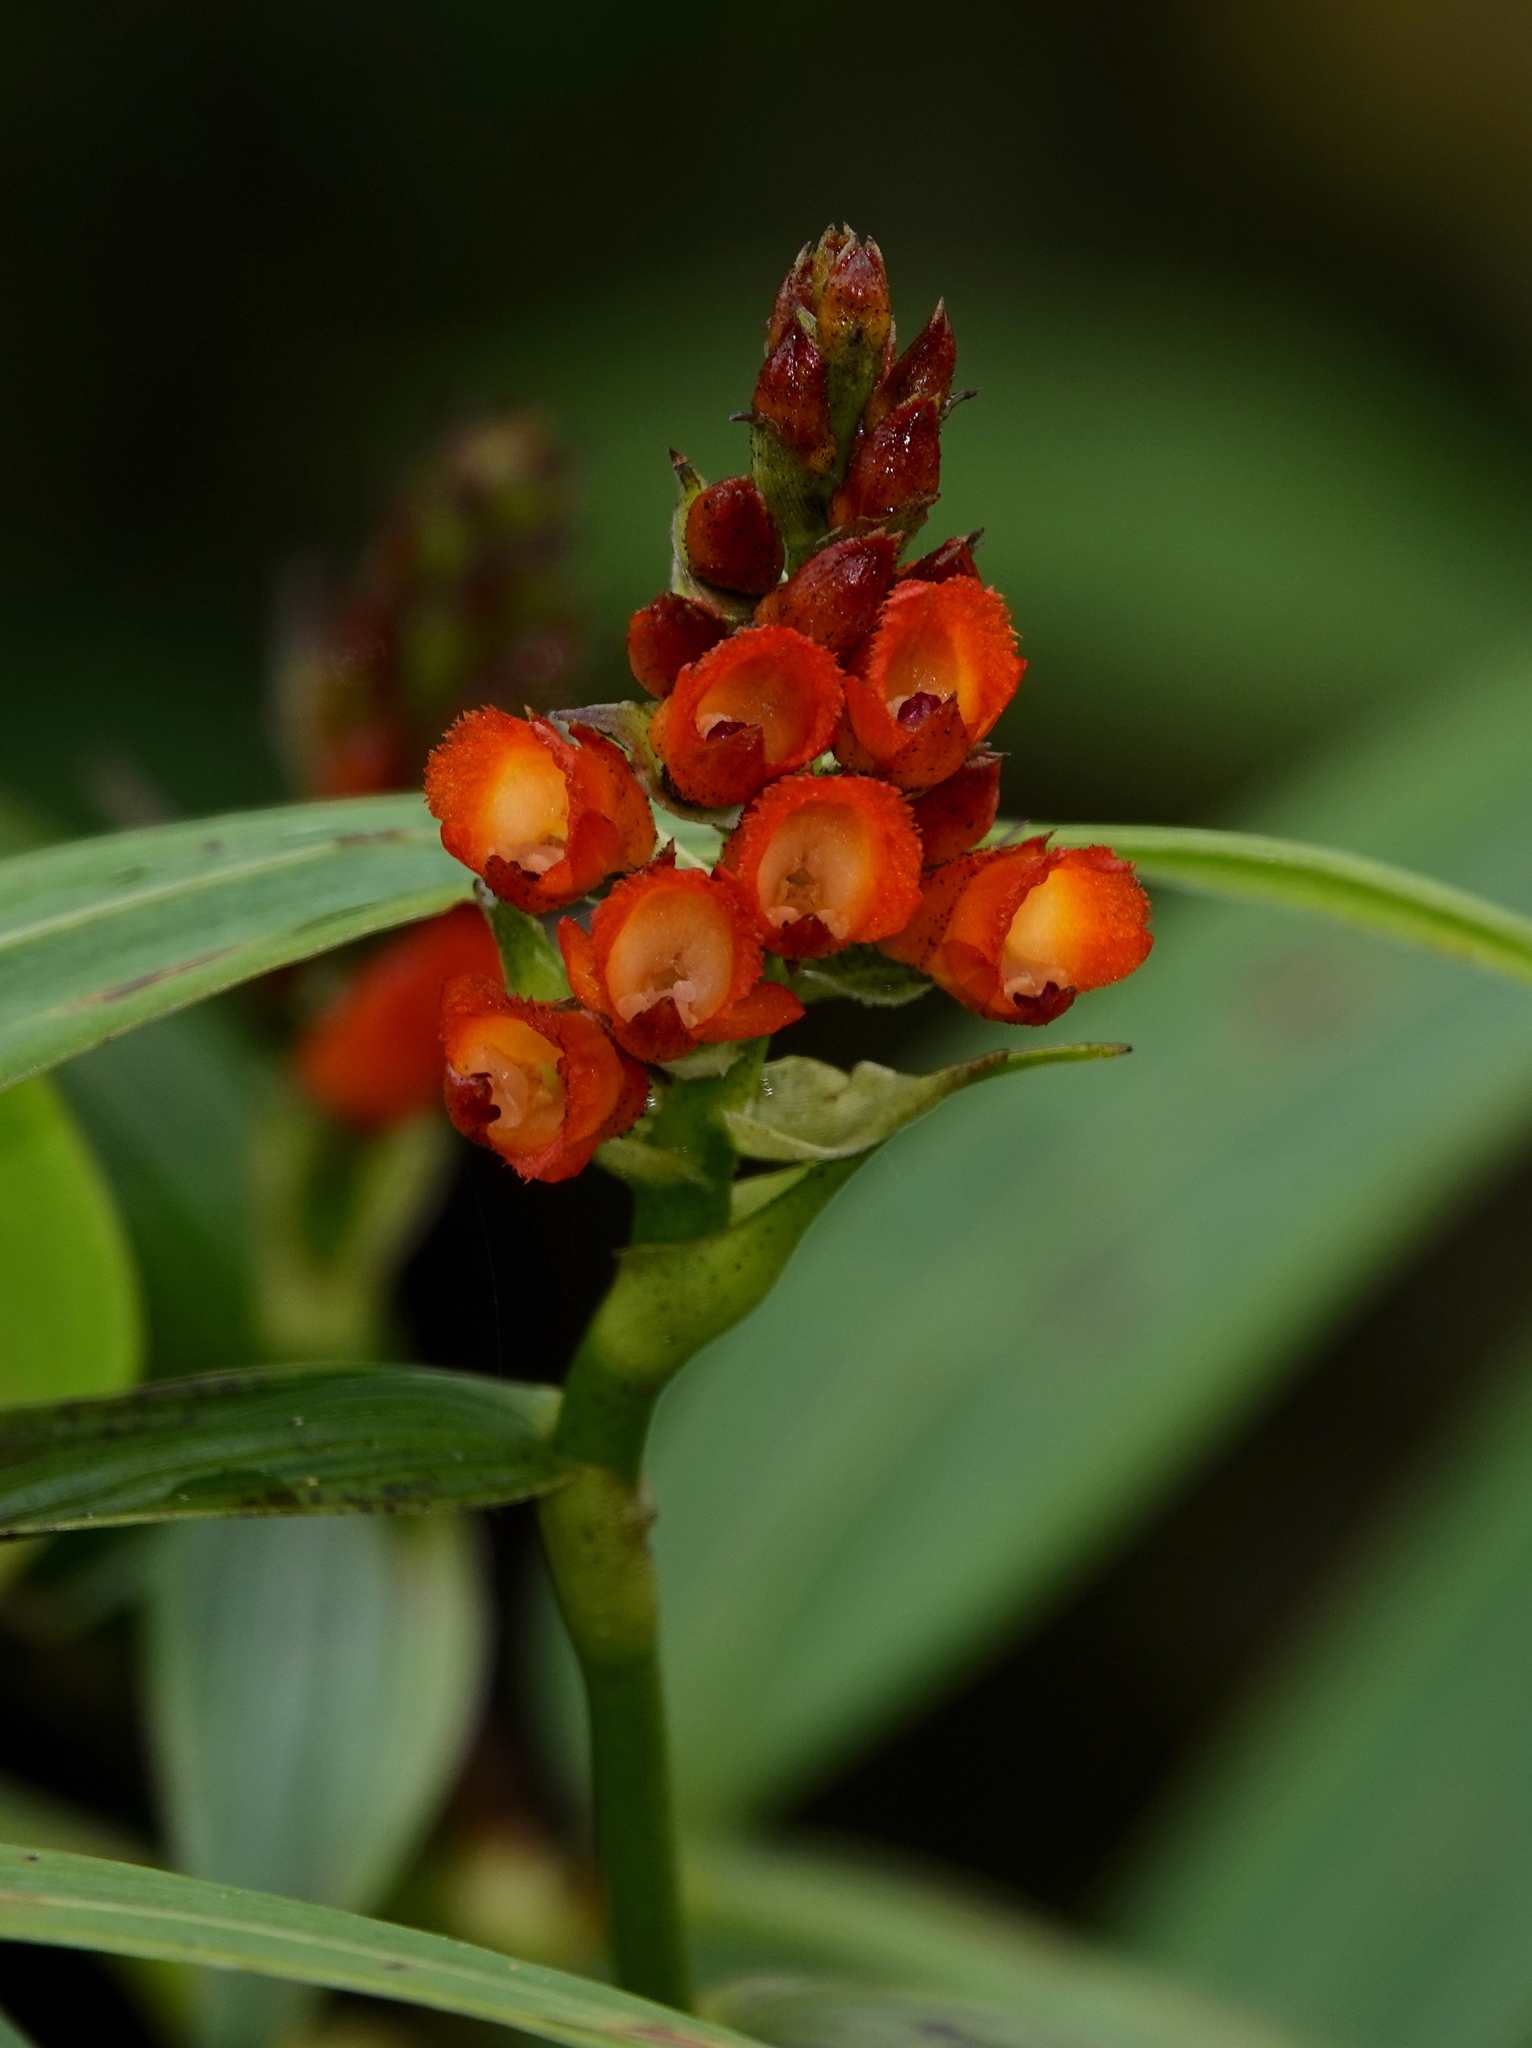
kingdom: Plantae
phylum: Tracheophyta
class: Liliopsida
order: Asparagales
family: Orchidaceae
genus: Elleanthus
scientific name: Elleanthus aurantiacus
